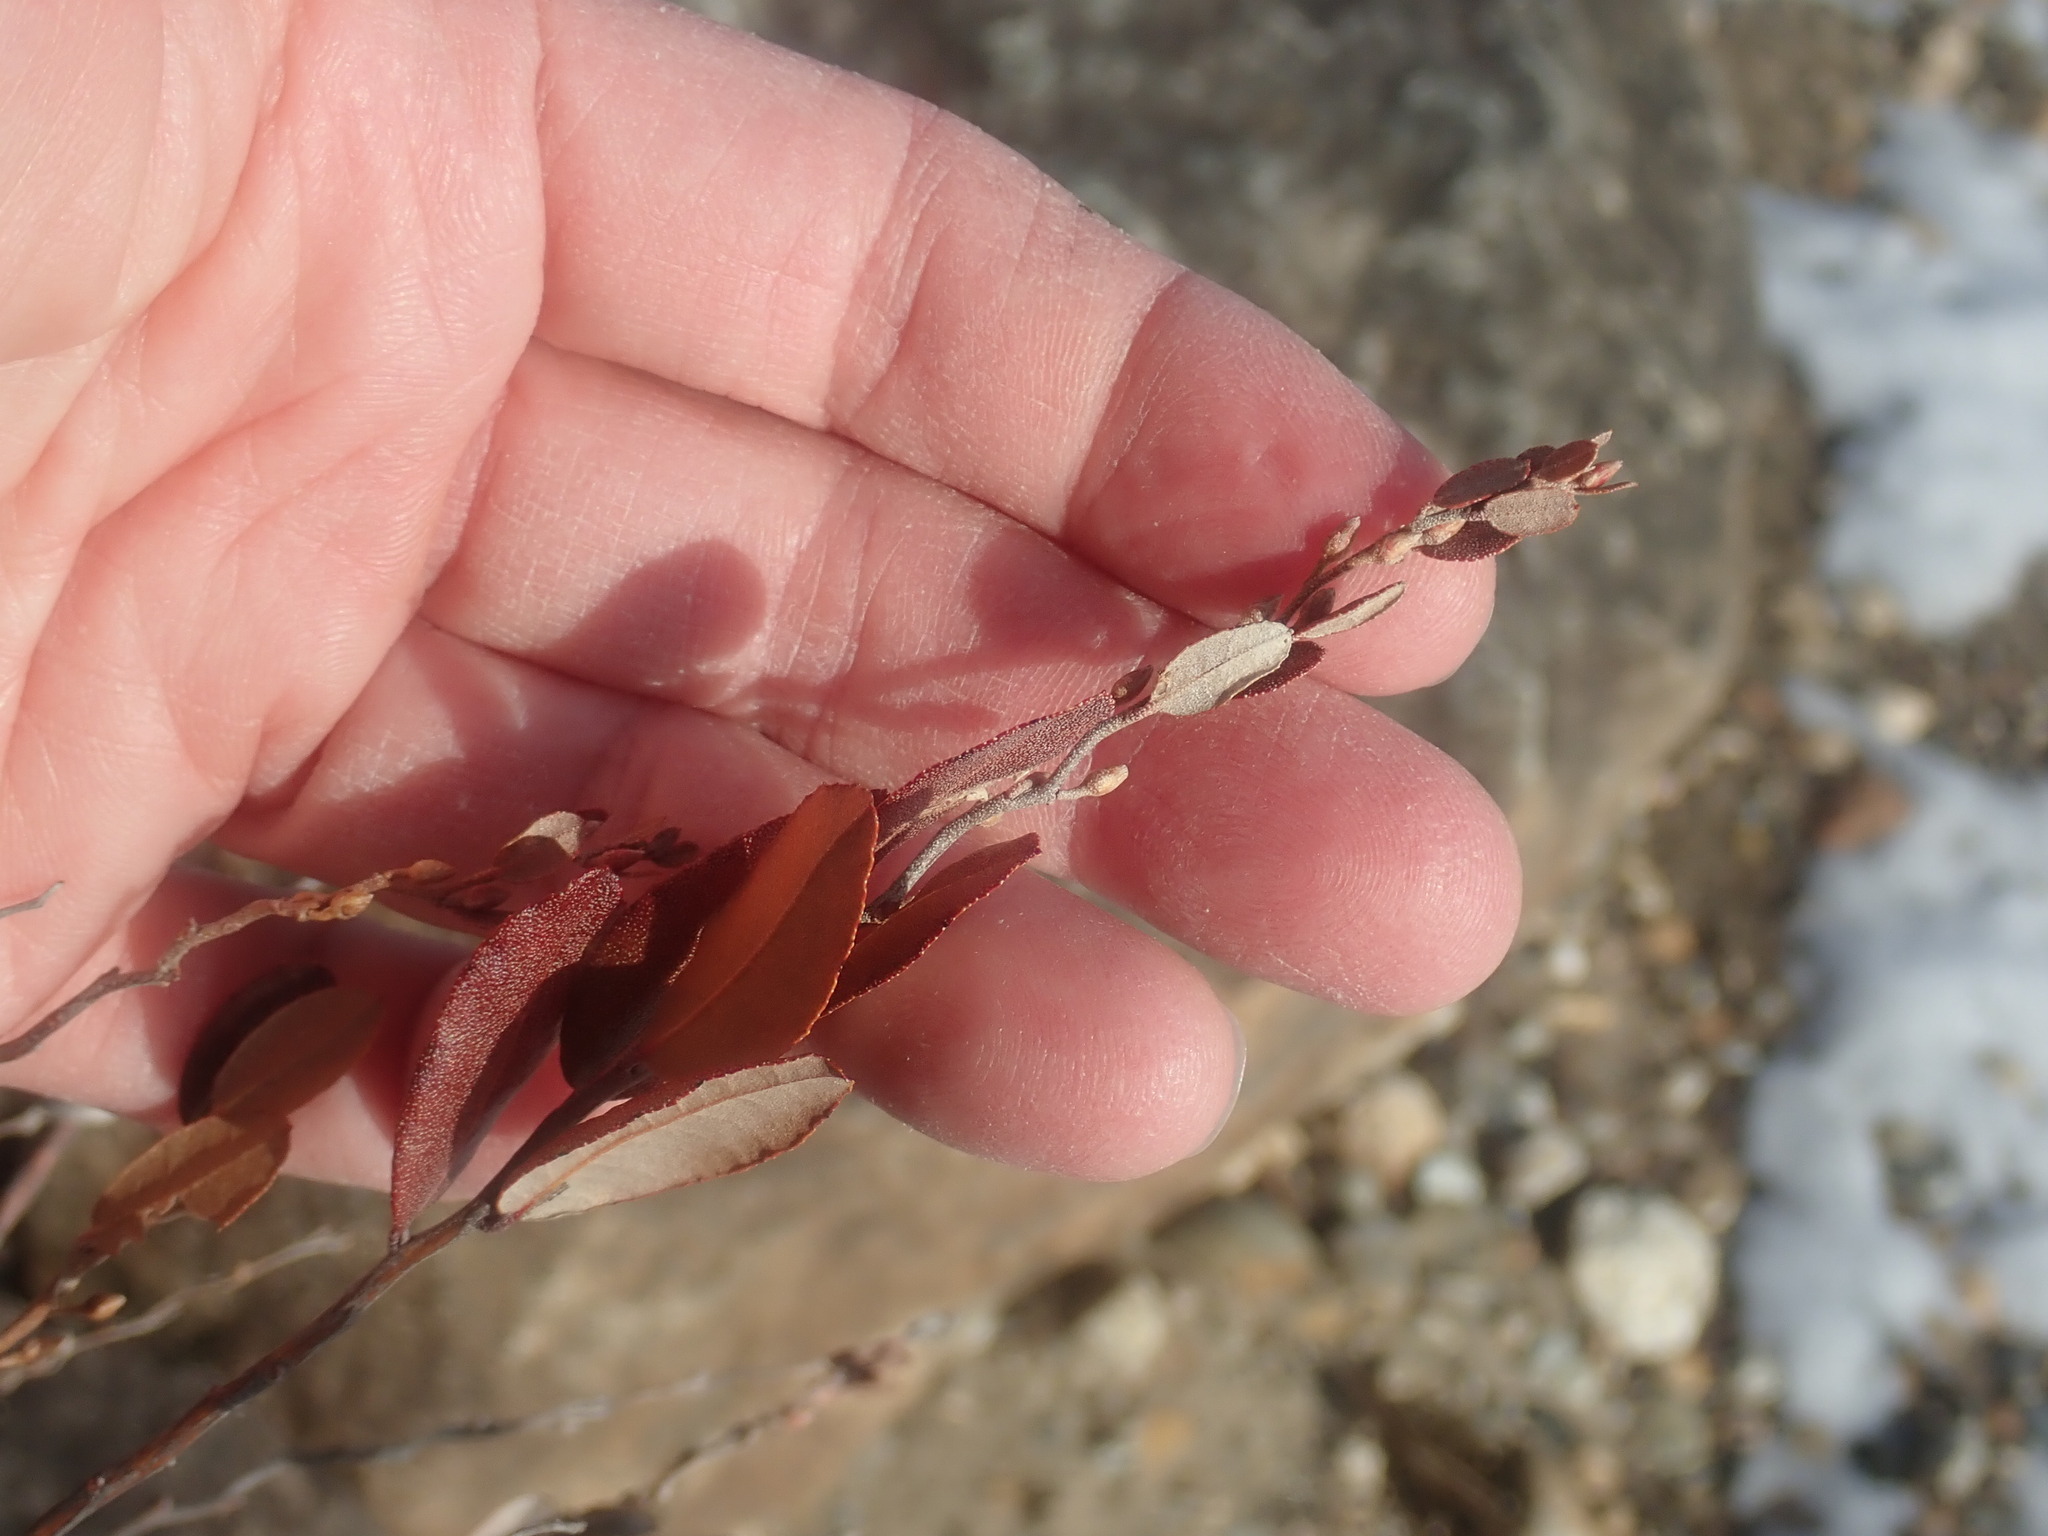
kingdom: Plantae
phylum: Tracheophyta
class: Magnoliopsida
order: Ericales
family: Ericaceae
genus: Chamaedaphne
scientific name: Chamaedaphne calyculata
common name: Leatherleaf
